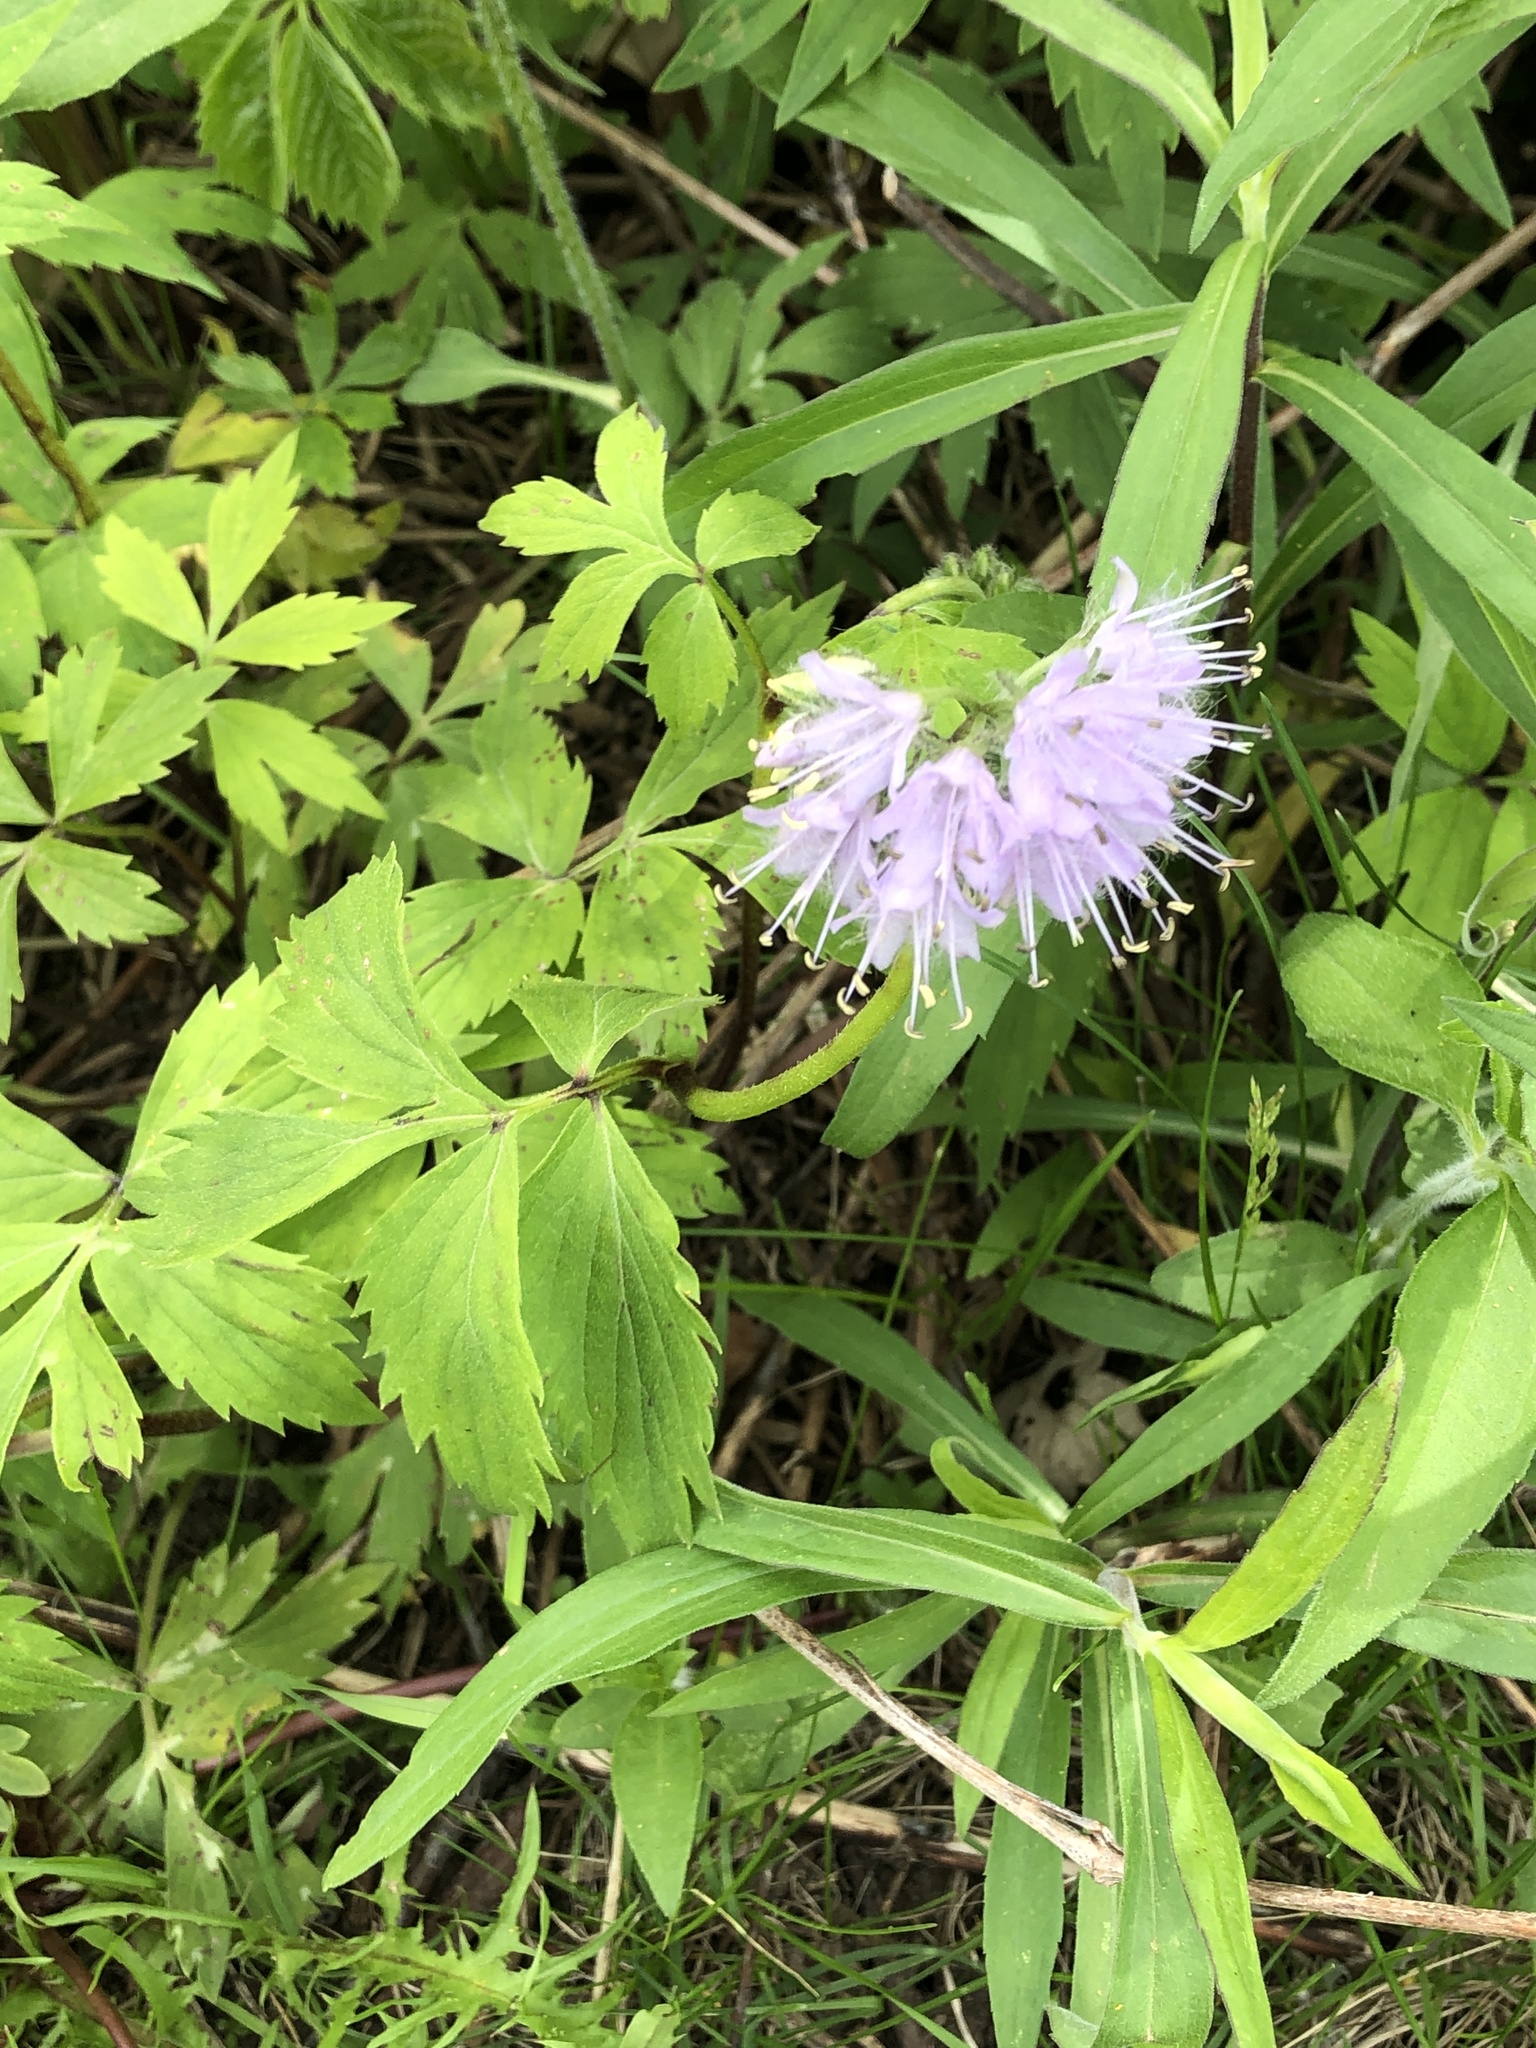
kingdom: Plantae
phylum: Tracheophyta
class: Magnoliopsida
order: Boraginales
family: Hydrophyllaceae
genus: Hydrophyllum
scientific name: Hydrophyllum virginianum
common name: Virginia waterleaf
